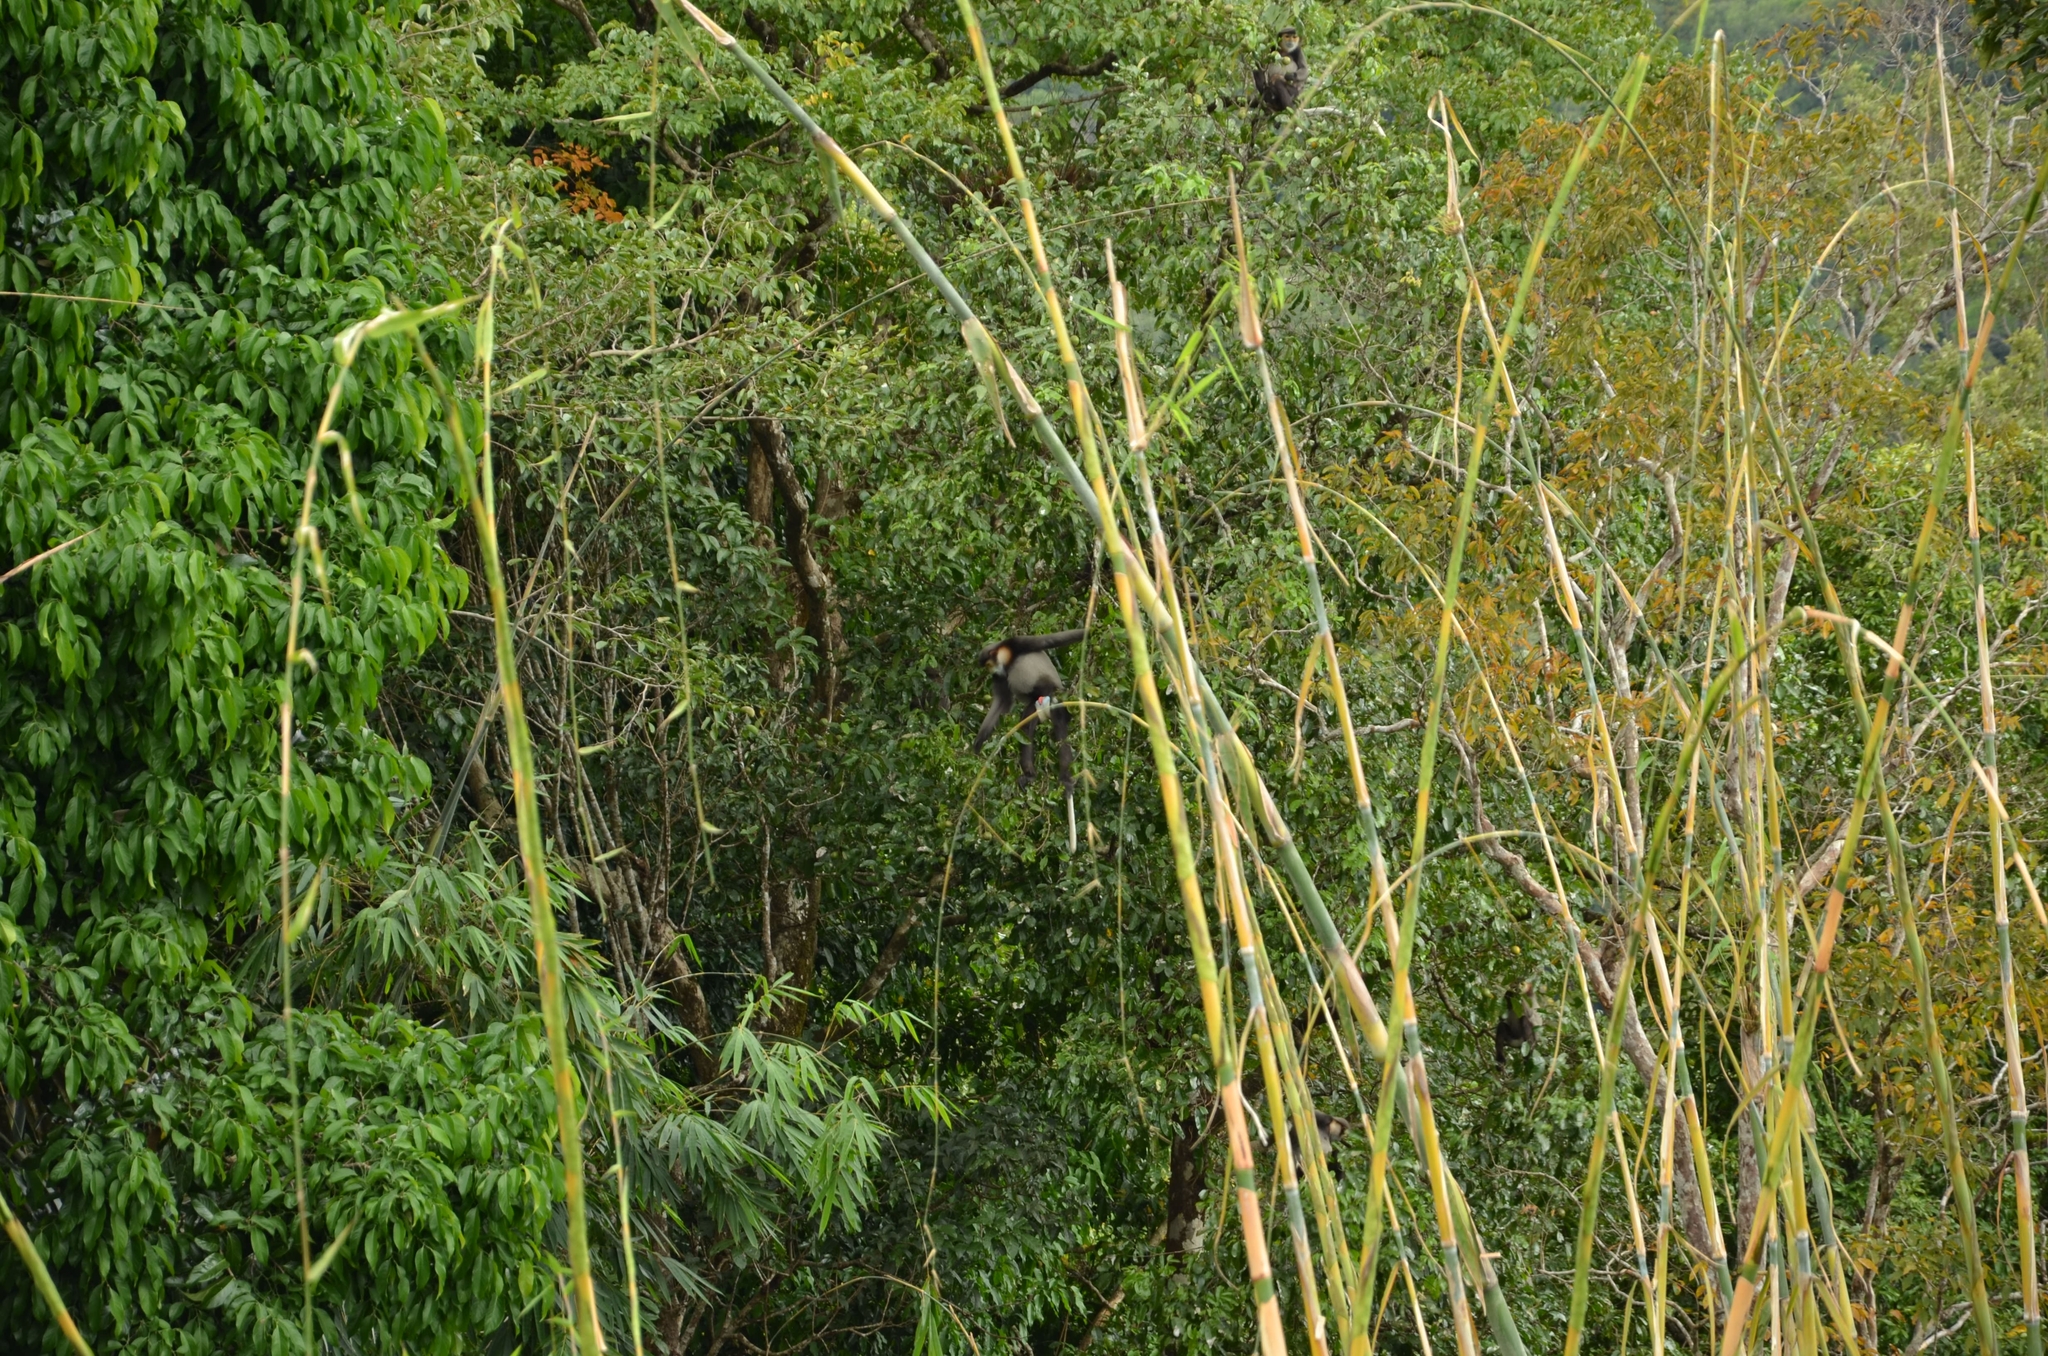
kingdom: Animalia
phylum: Chordata
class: Mammalia
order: Primates
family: Cercopithecidae
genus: Pygathrix
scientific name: Pygathrix nigripes
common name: Black-shanked douc
